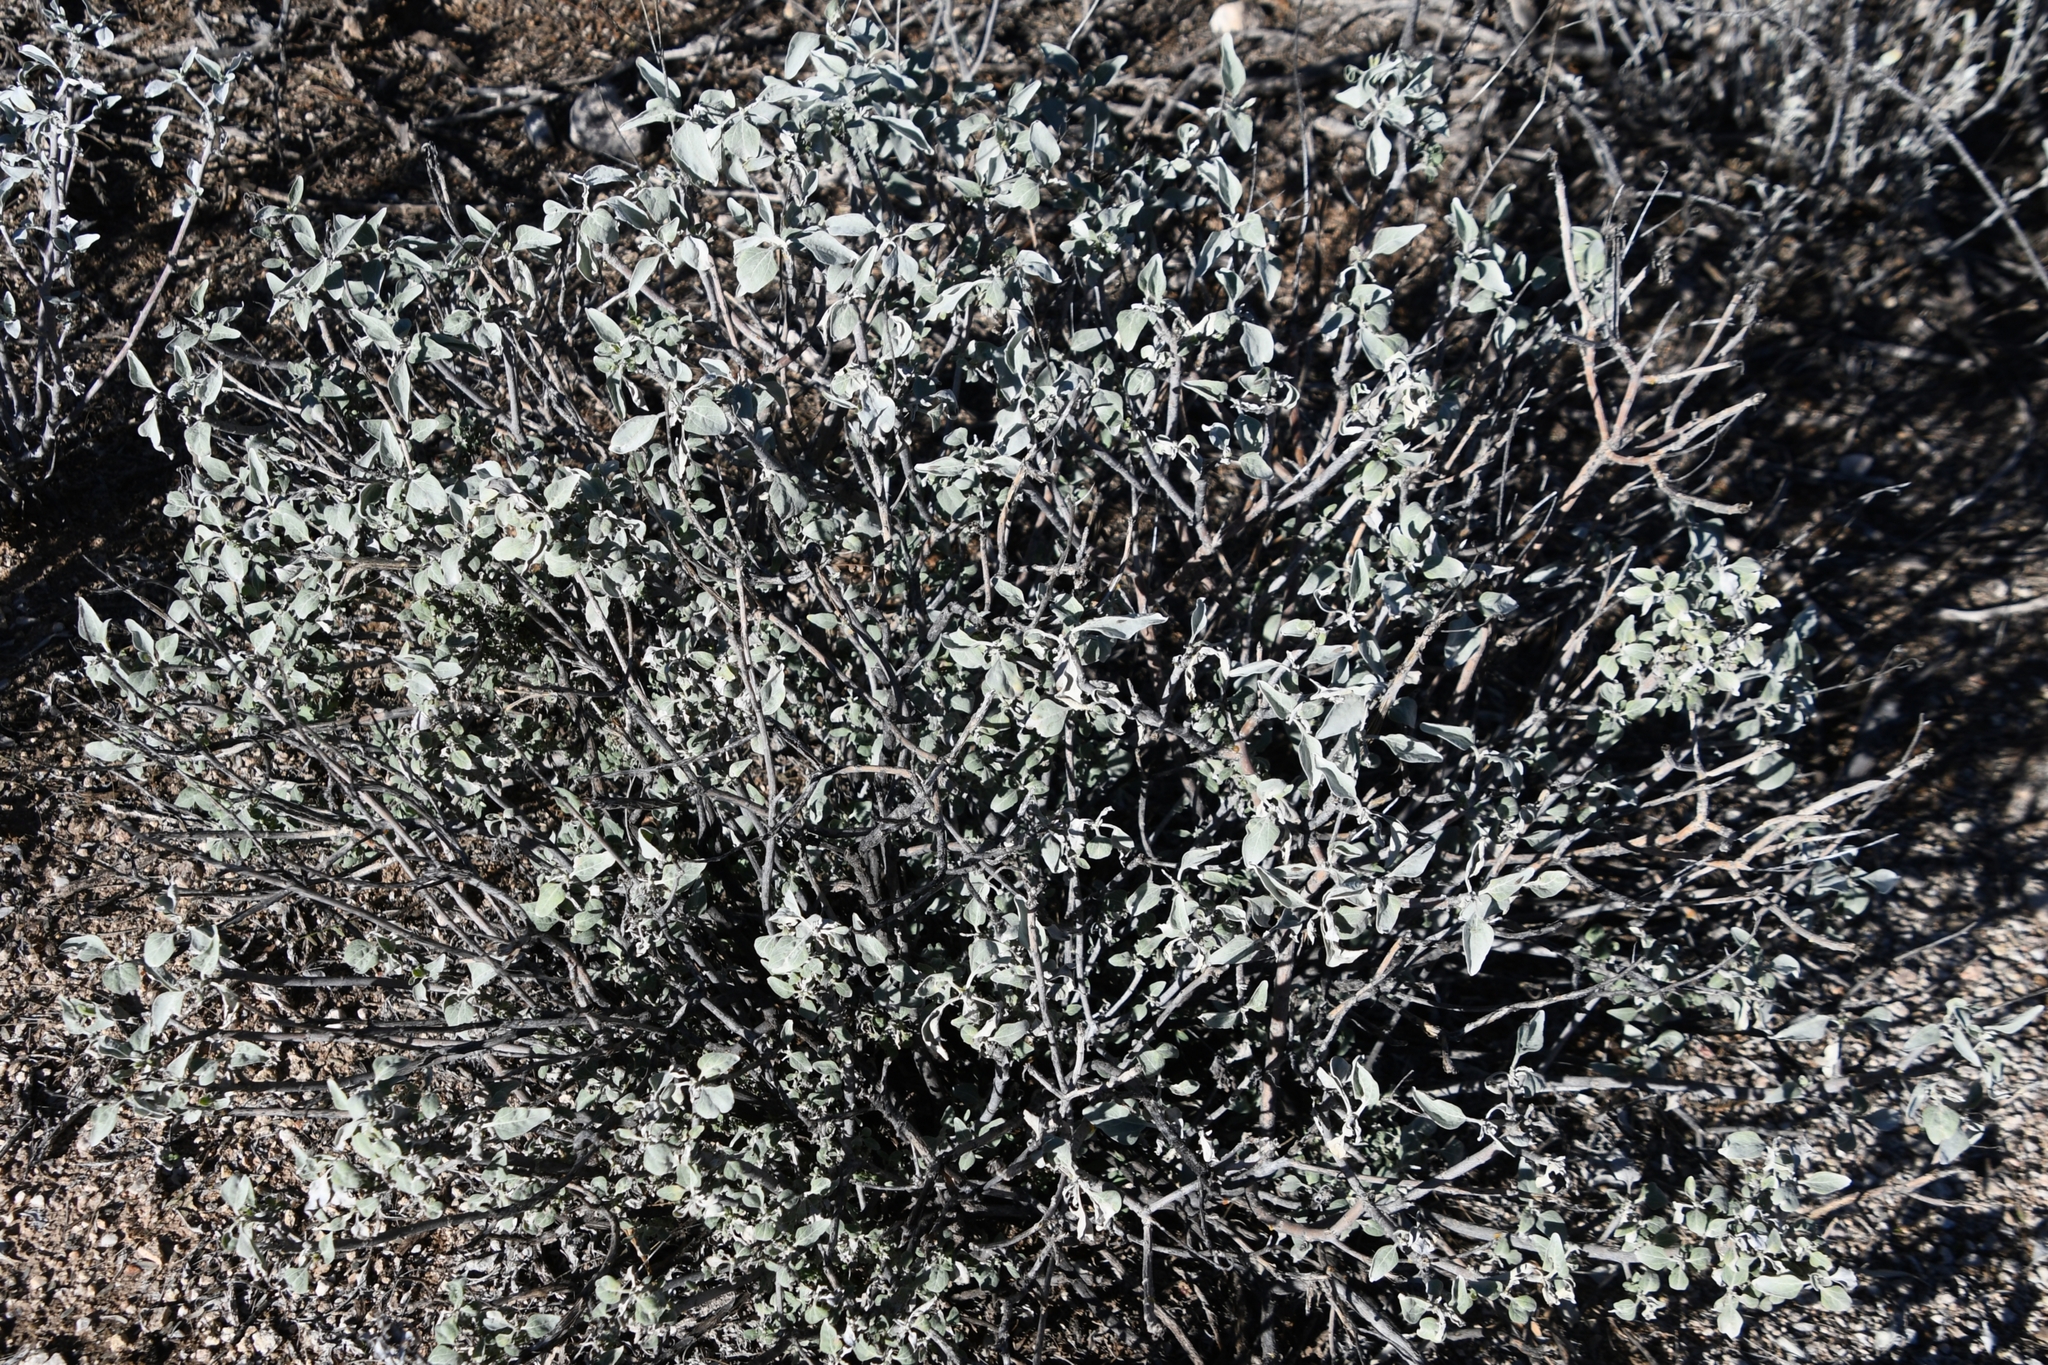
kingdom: Plantae
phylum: Tracheophyta
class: Magnoliopsida
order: Asterales
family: Asteraceae
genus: Encelia
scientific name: Encelia farinosa
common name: Brittlebush
